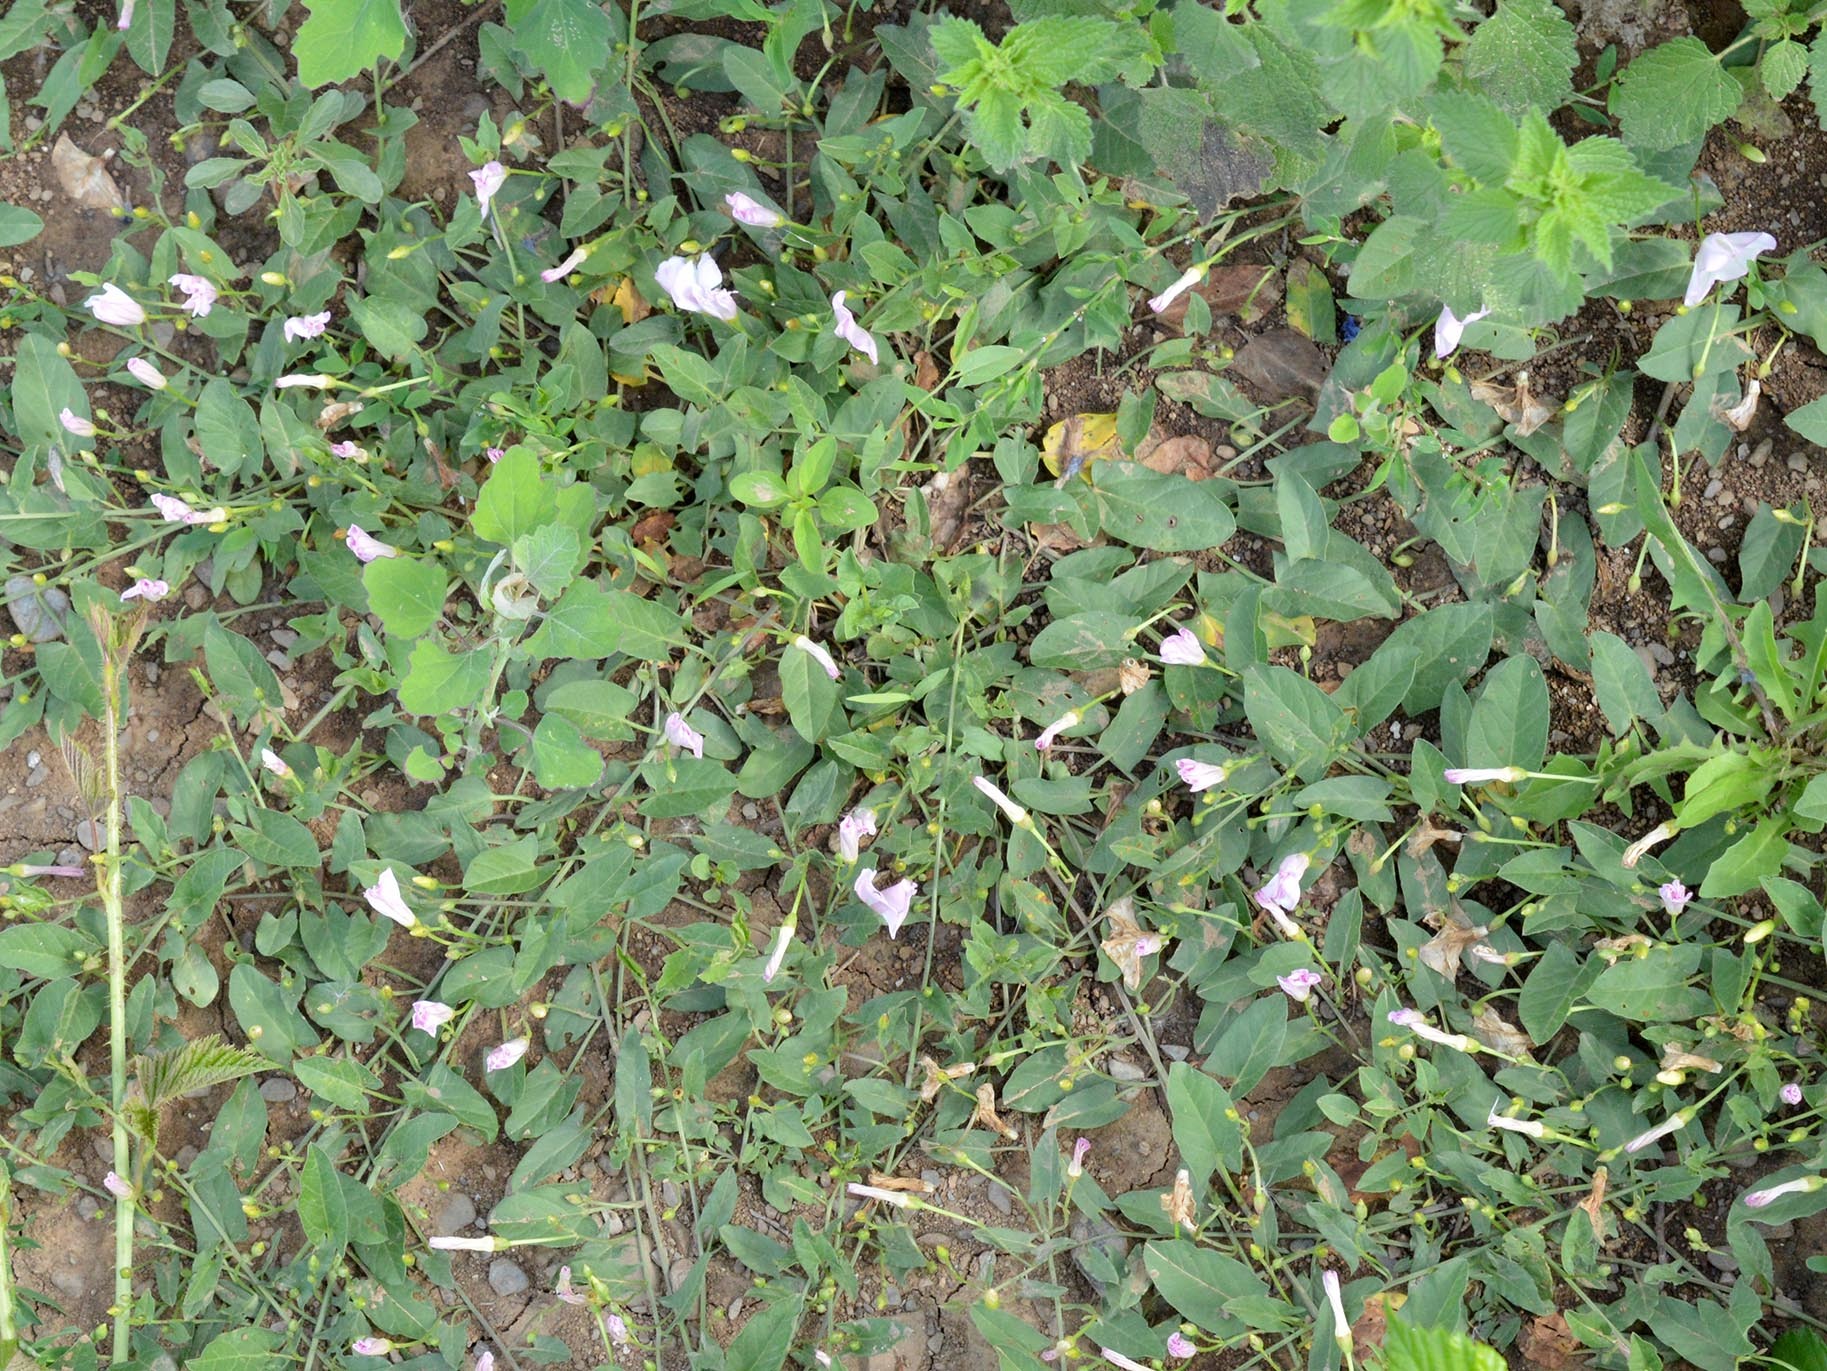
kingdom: Plantae
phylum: Tracheophyta
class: Magnoliopsida
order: Solanales
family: Convolvulaceae
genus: Convolvulus
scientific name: Convolvulus arvensis
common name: Field bindweed
